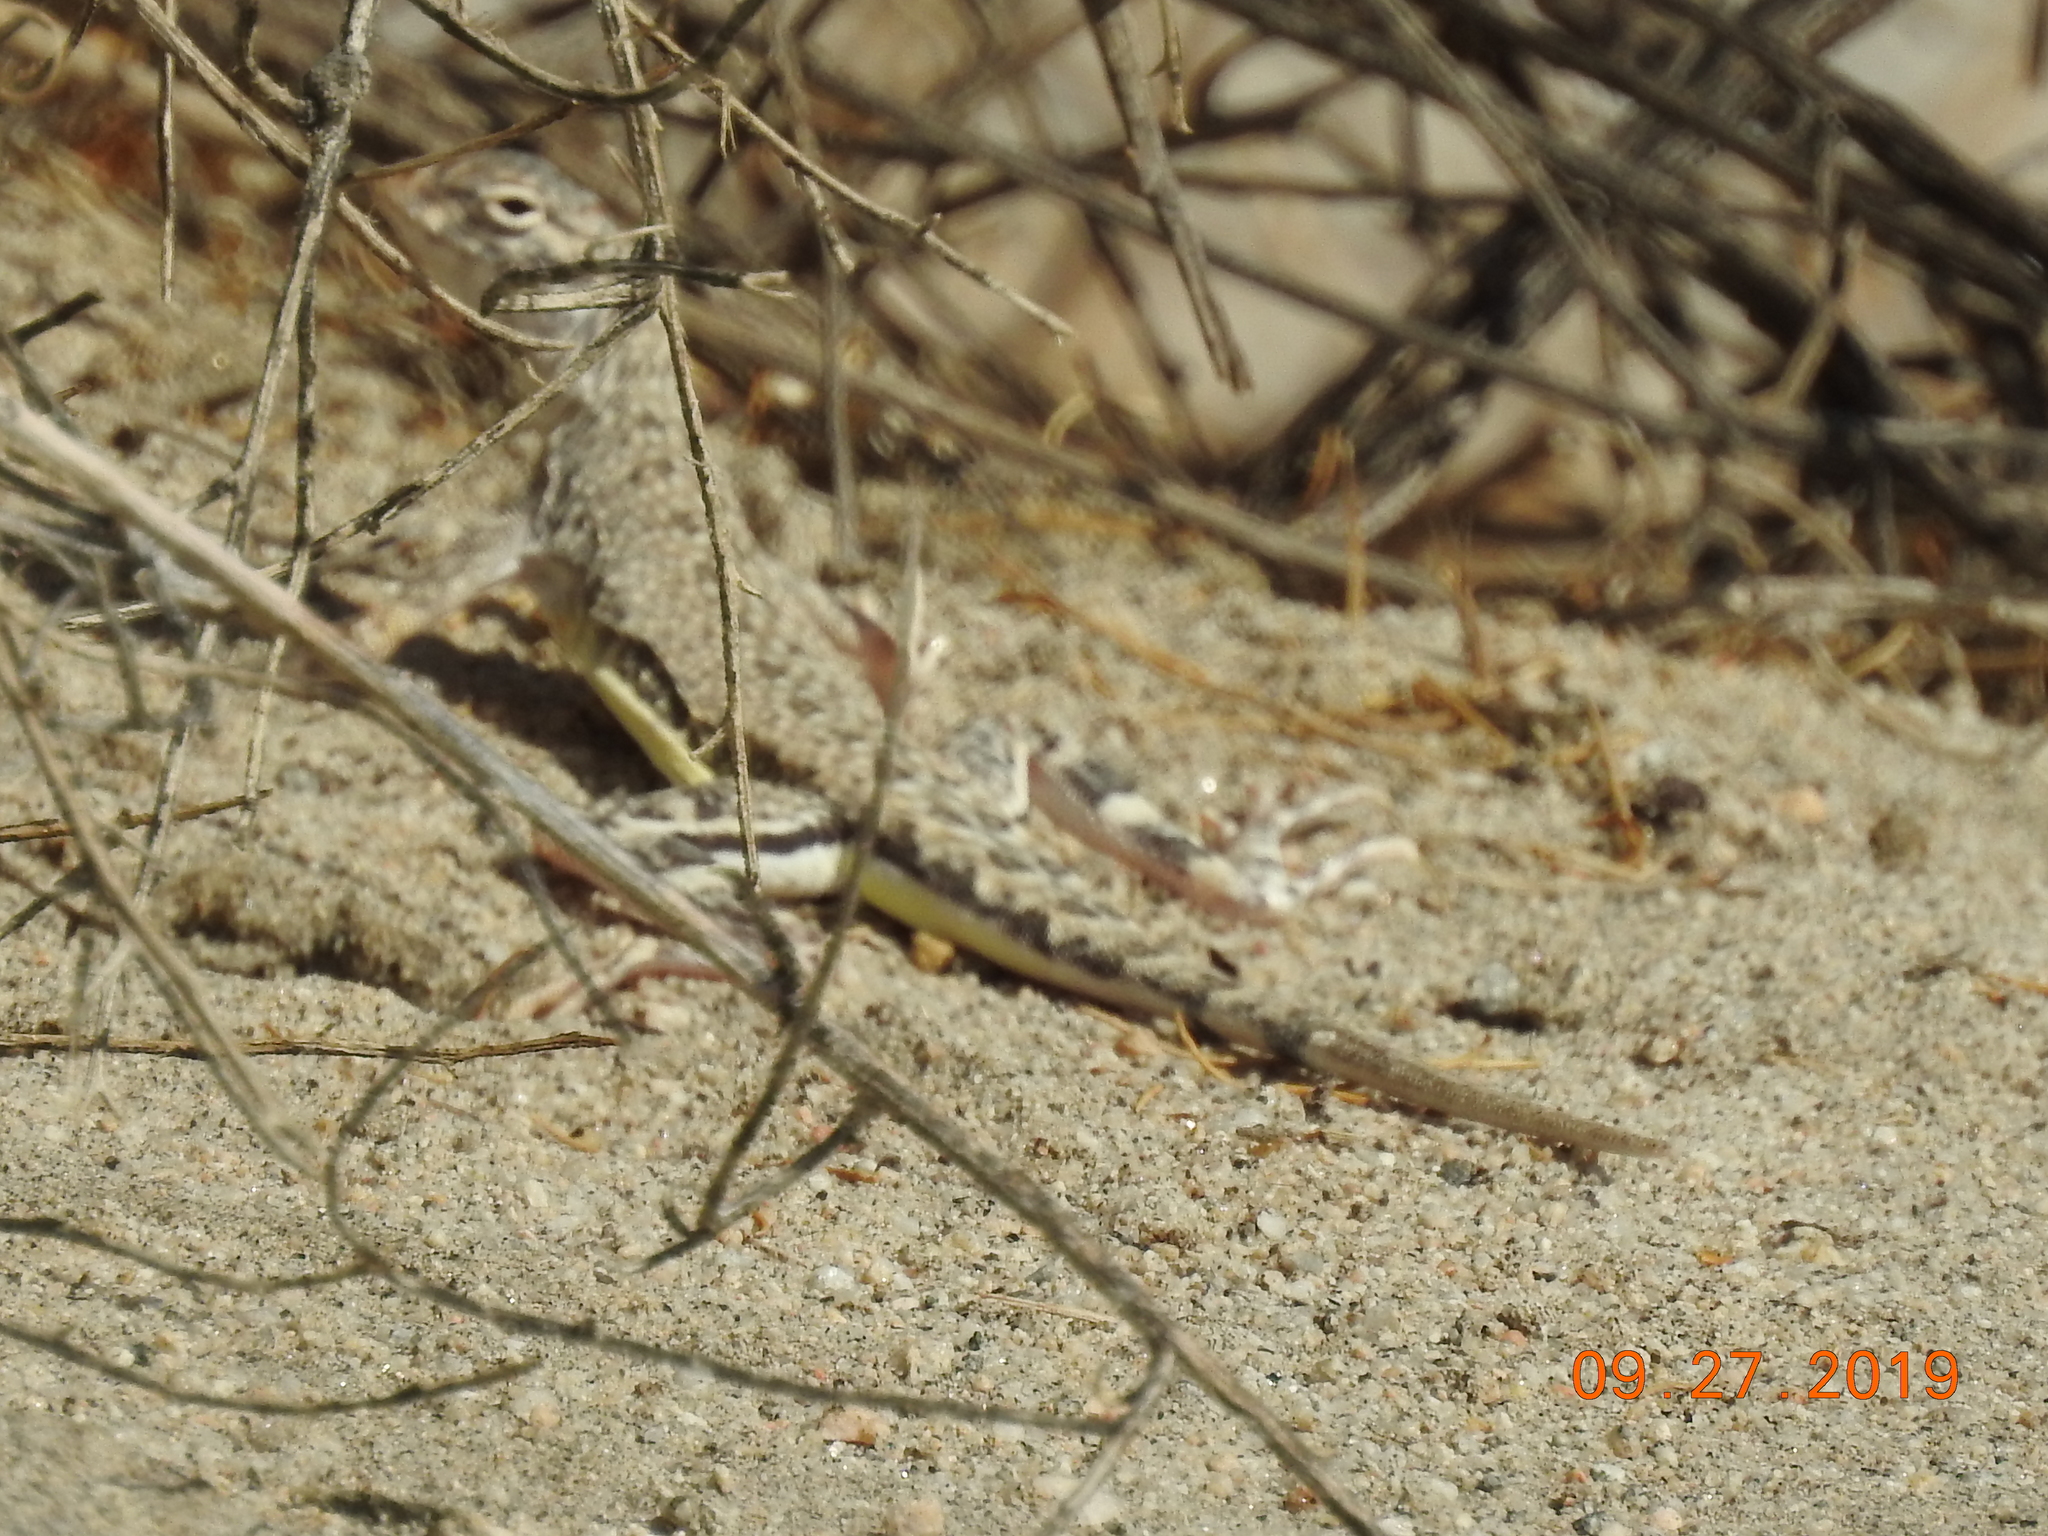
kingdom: Animalia
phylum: Chordata
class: Squamata
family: Phrynosomatidae
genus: Callisaurus
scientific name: Callisaurus draconoides
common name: Zebra-tailed lizard
